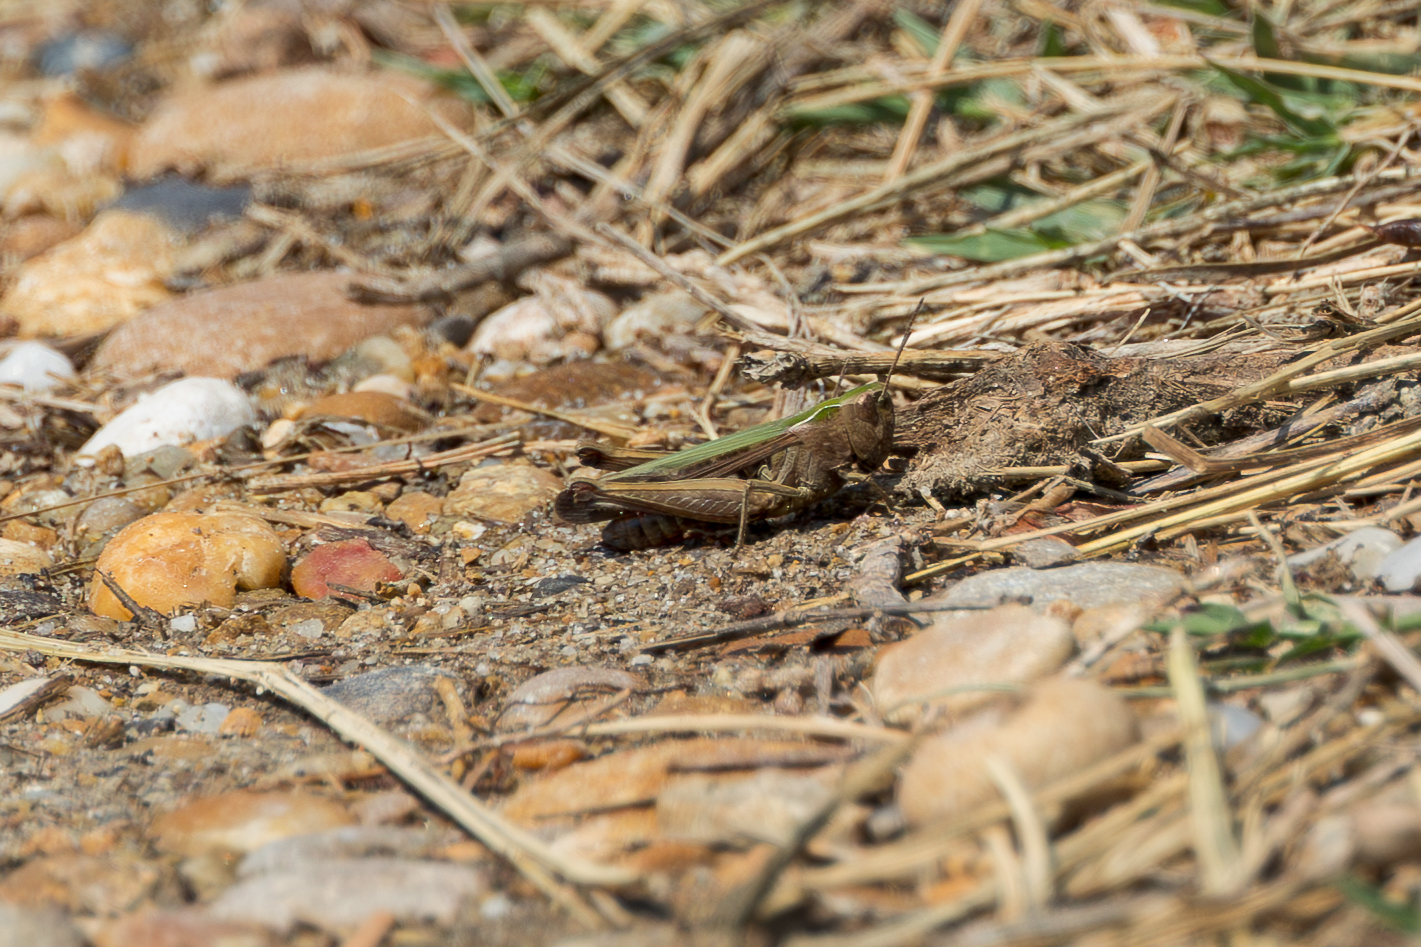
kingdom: Animalia
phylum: Arthropoda
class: Insecta
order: Orthoptera
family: Acrididae
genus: Omocestus
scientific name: Omocestus rufipes
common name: Woodland grasshopper
